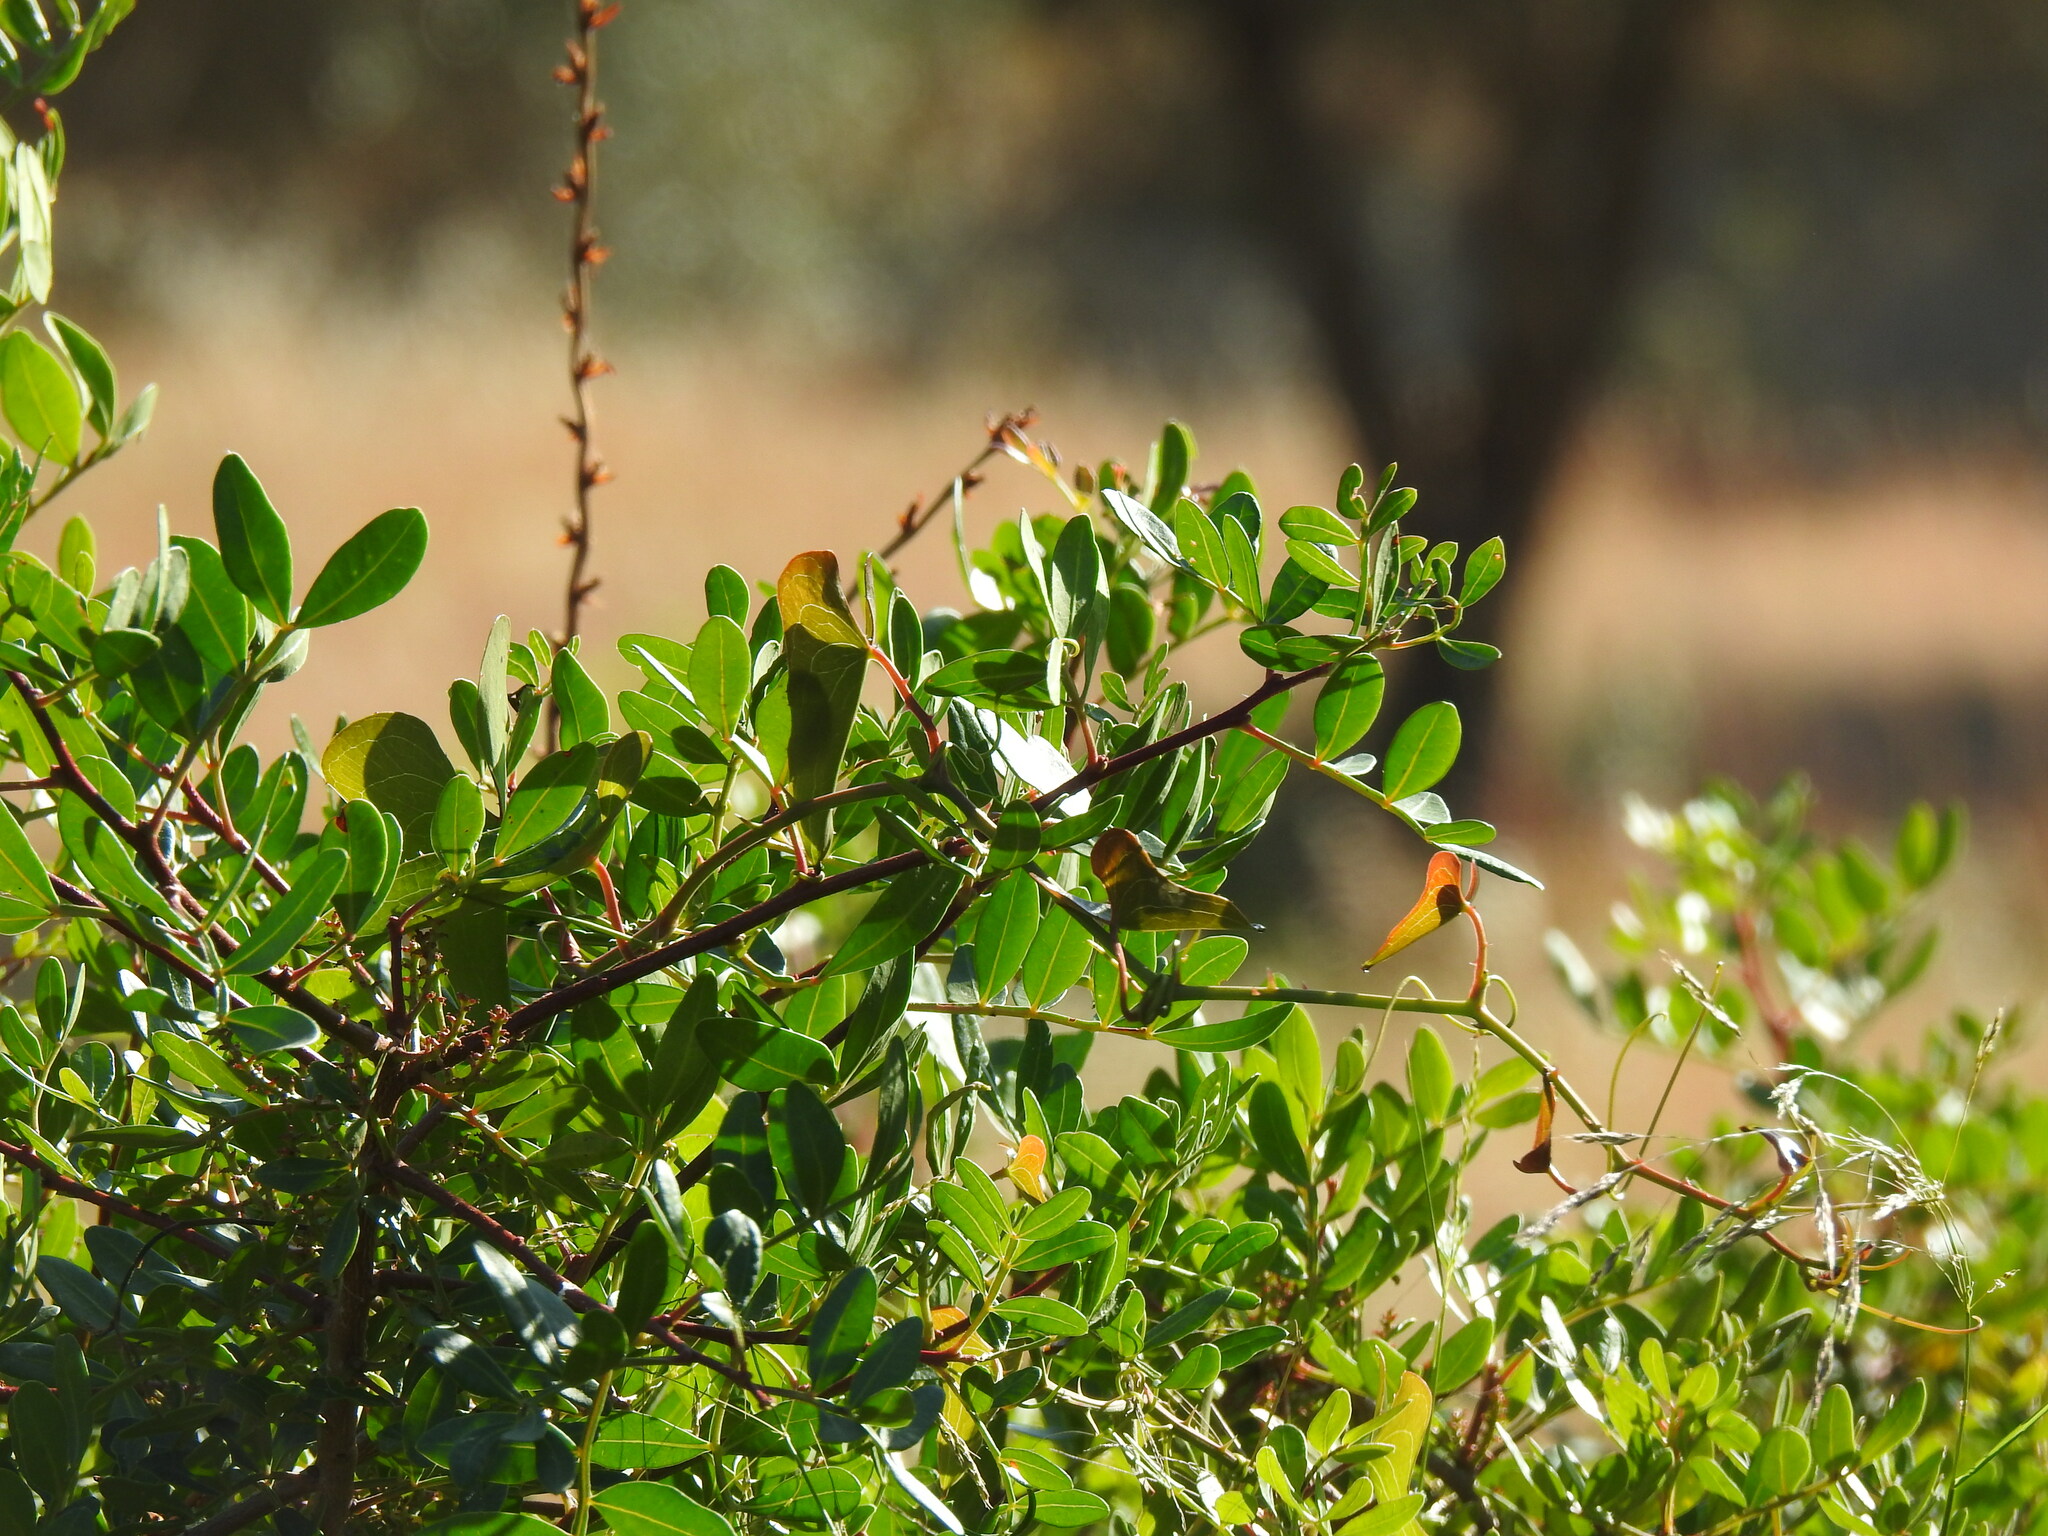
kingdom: Plantae
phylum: Tracheophyta
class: Magnoliopsida
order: Sapindales
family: Anacardiaceae
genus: Pistacia
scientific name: Pistacia lentiscus
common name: Lentisk
